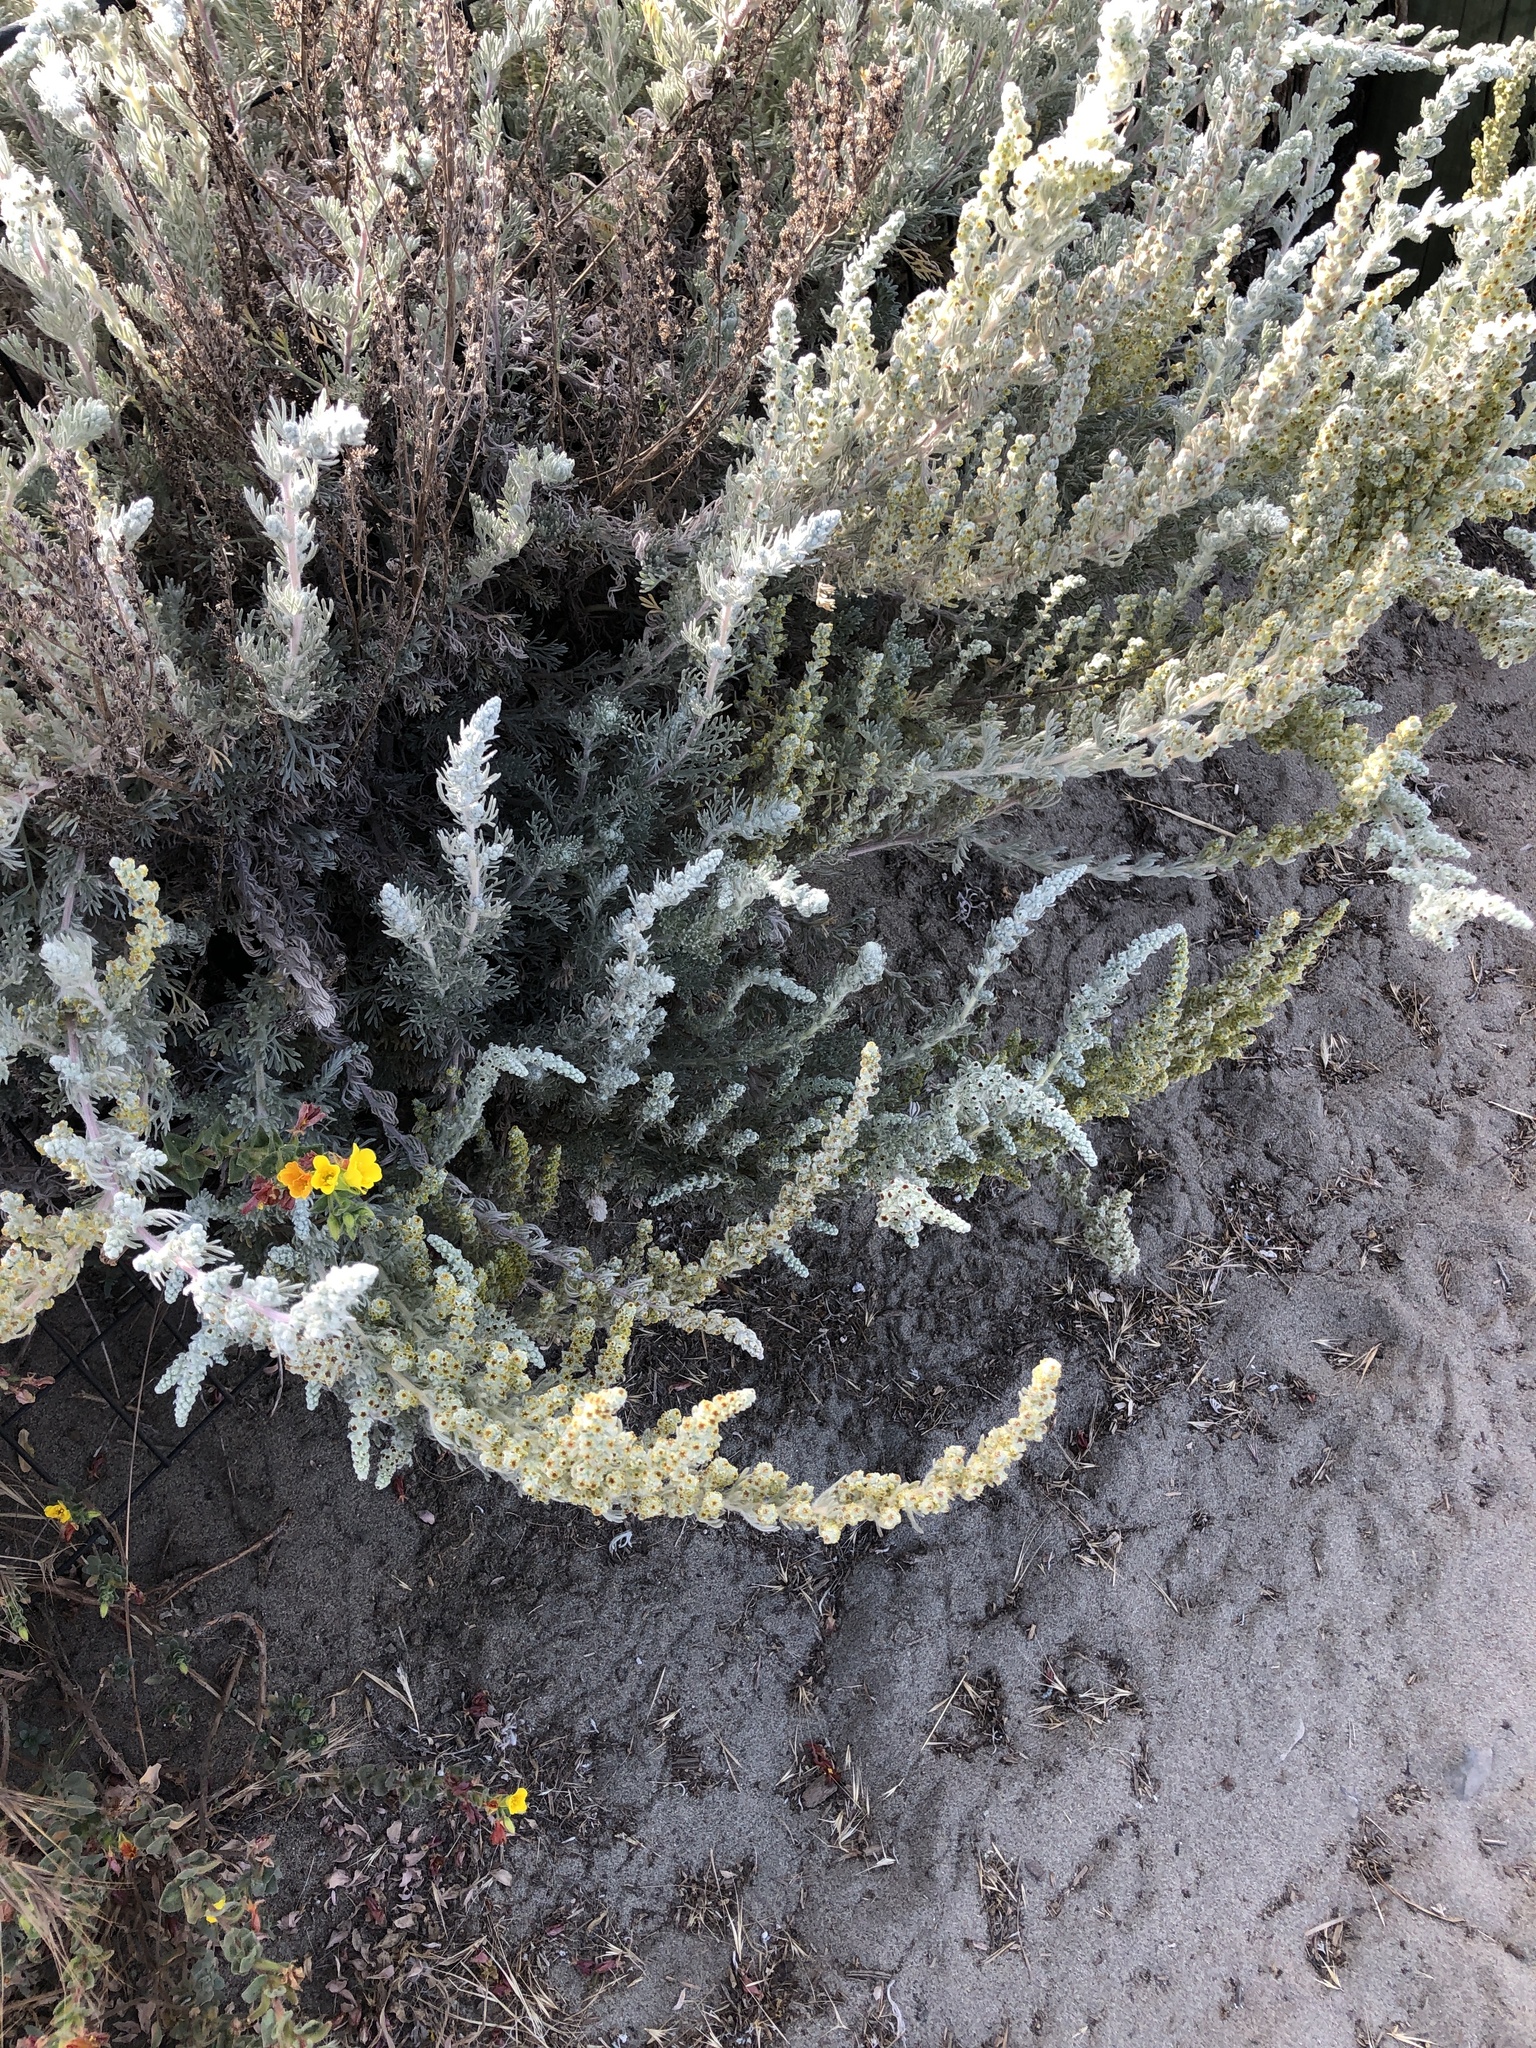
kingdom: Plantae
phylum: Tracheophyta
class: Magnoliopsida
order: Asterales
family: Asteraceae
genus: Artemisia
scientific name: Artemisia pycnocephala
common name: Coastal sagewort
